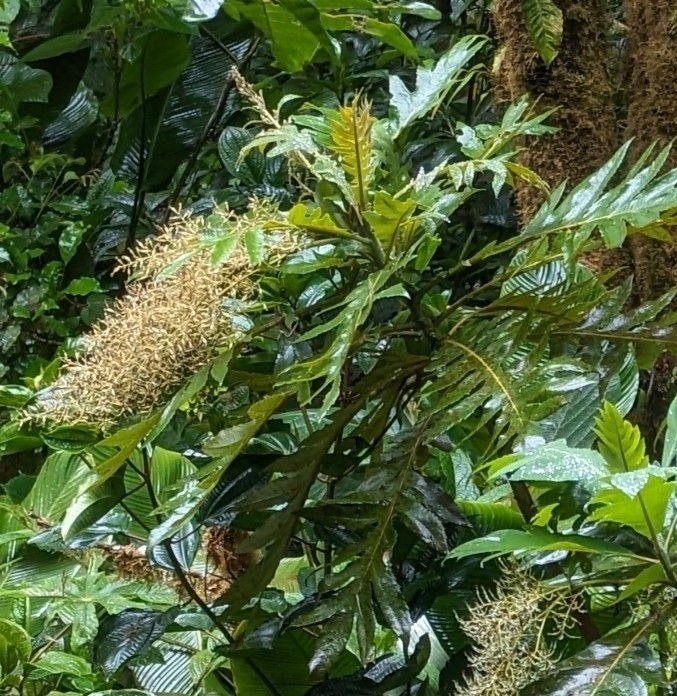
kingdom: Plantae
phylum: Tracheophyta
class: Magnoliopsida
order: Ranunculales
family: Papaveraceae
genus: Bocconia
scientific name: Bocconia frutescens
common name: Tree poppy
